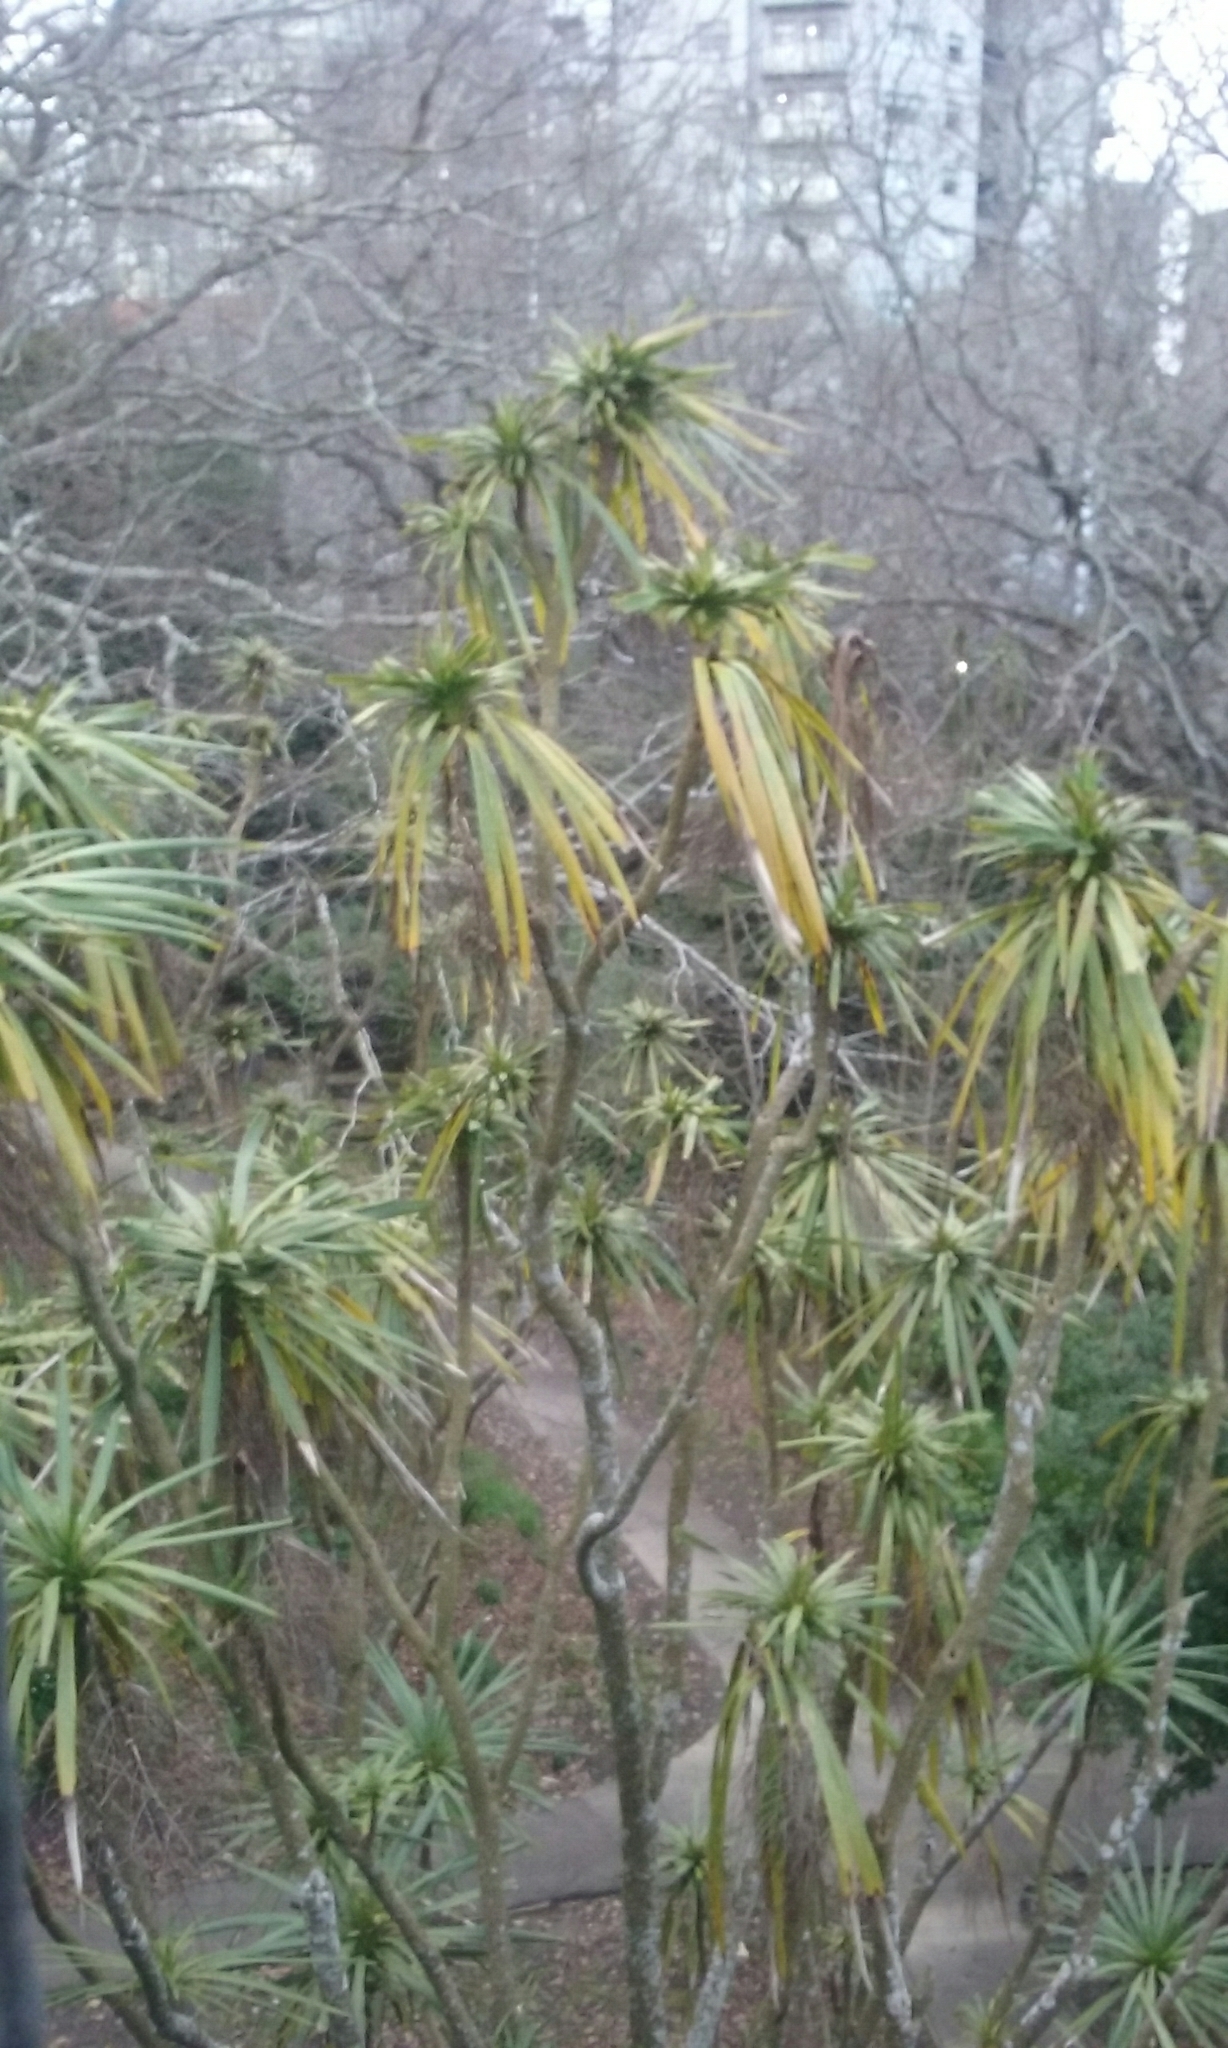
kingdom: Plantae
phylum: Tracheophyta
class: Liliopsida
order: Asparagales
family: Asparagaceae
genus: Cordyline
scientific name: Cordyline australis
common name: Cabbage-palm
